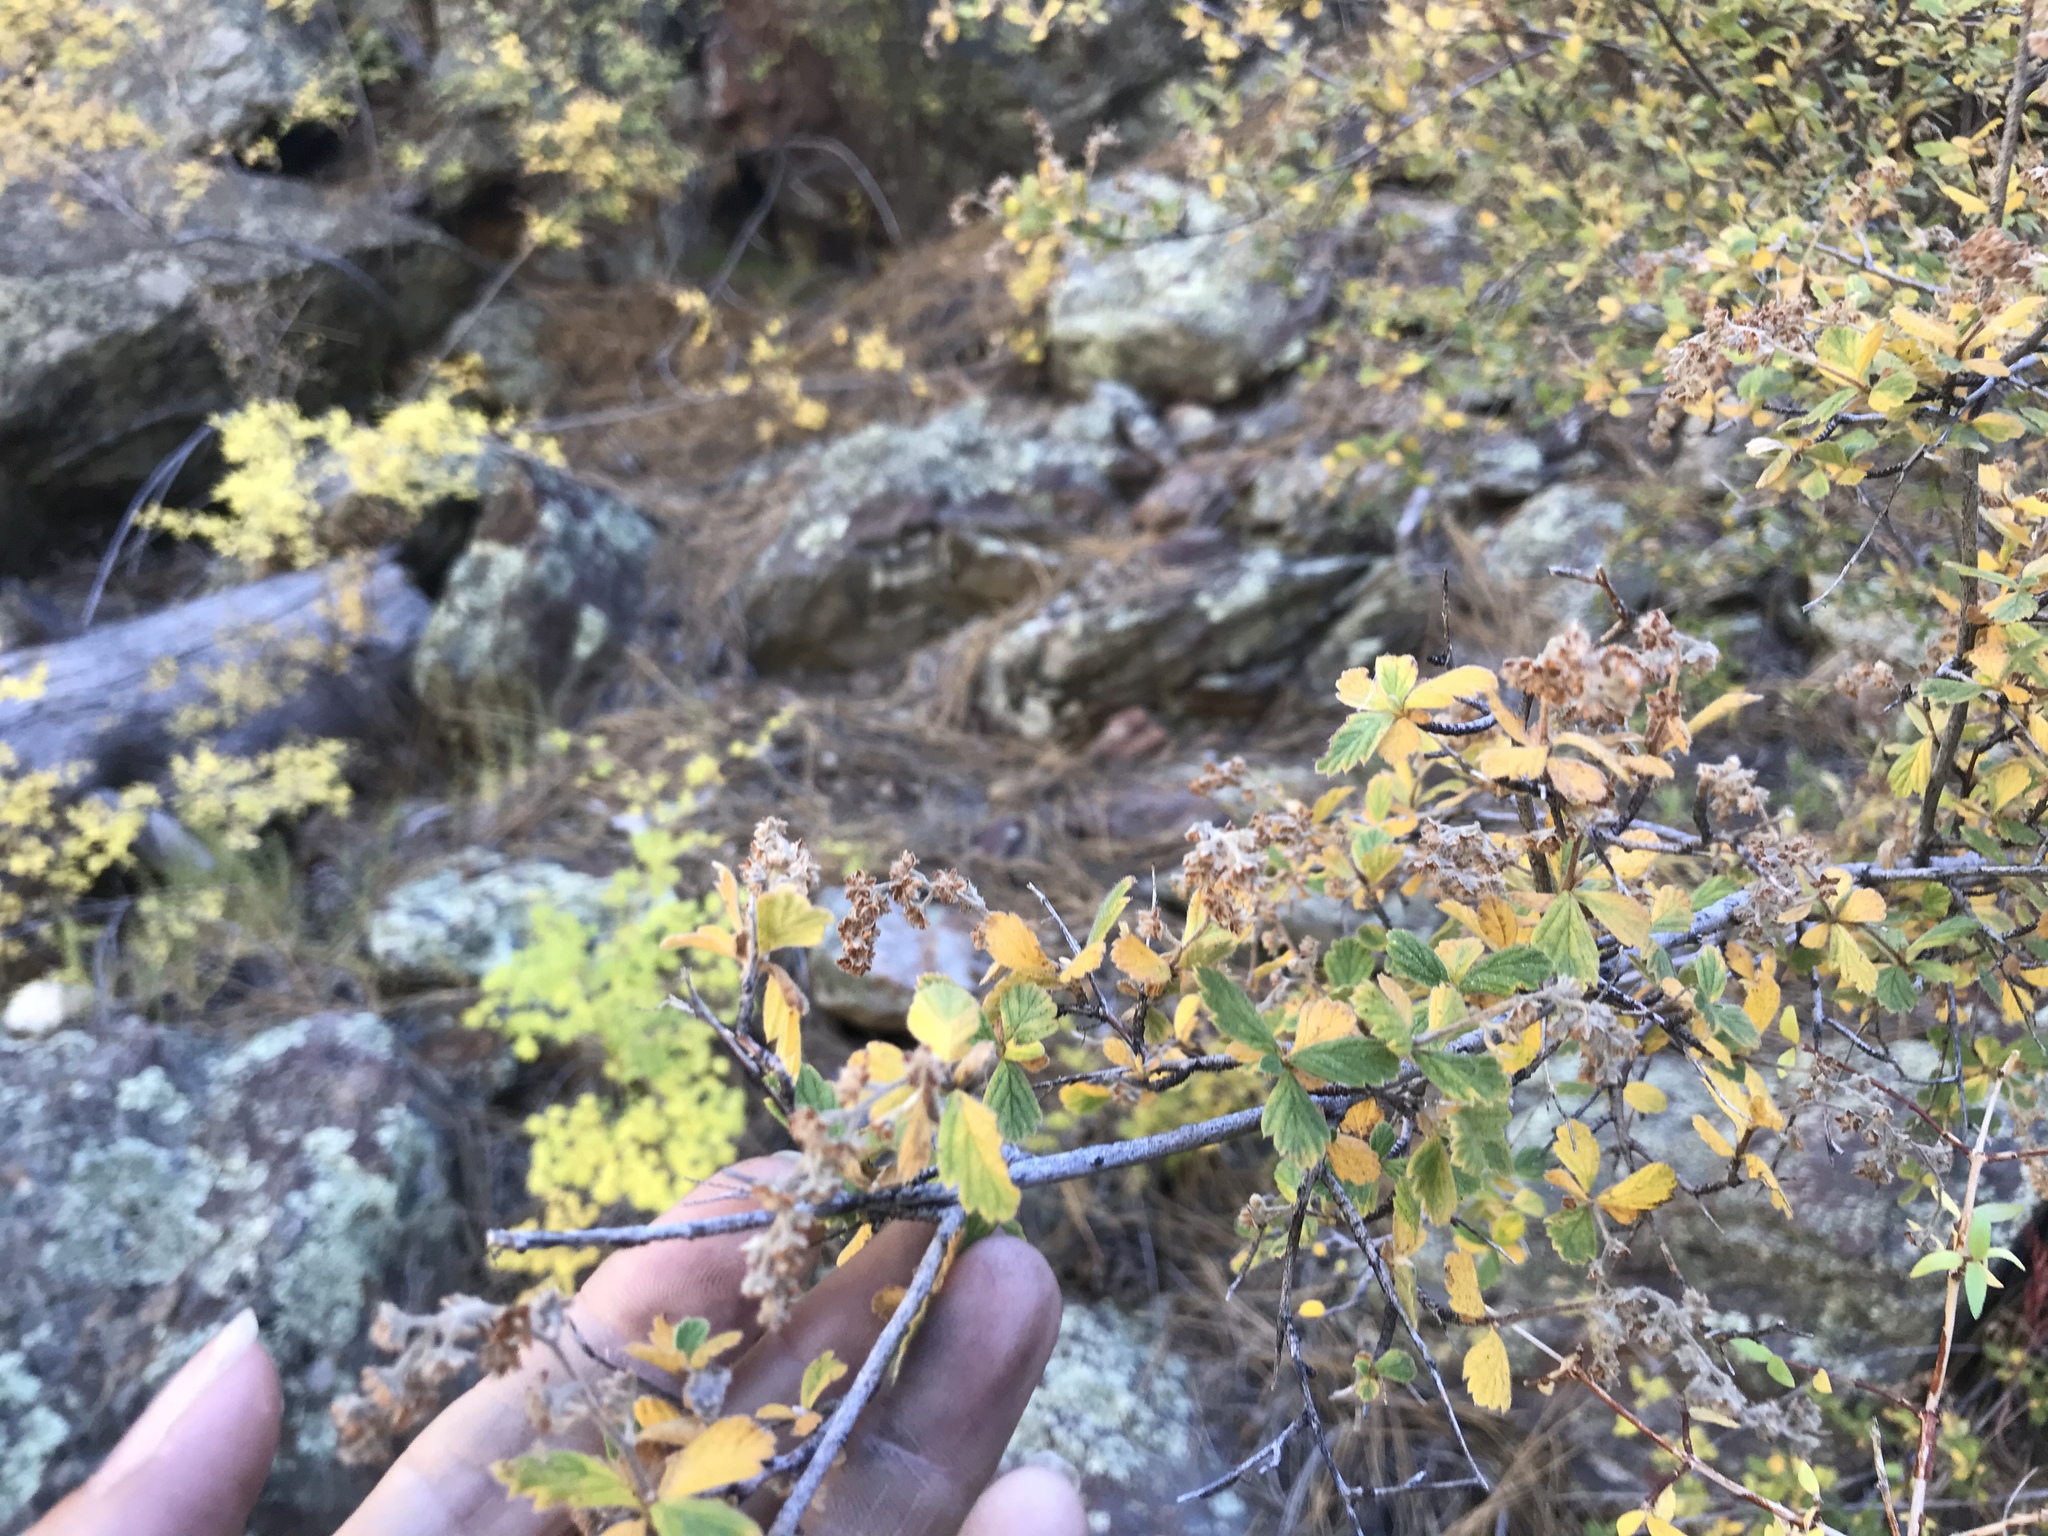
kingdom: Plantae
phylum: Tracheophyta
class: Magnoliopsida
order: Rosales
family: Rosaceae
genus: Holodiscus
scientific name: Holodiscus discolor
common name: Oceanspray
